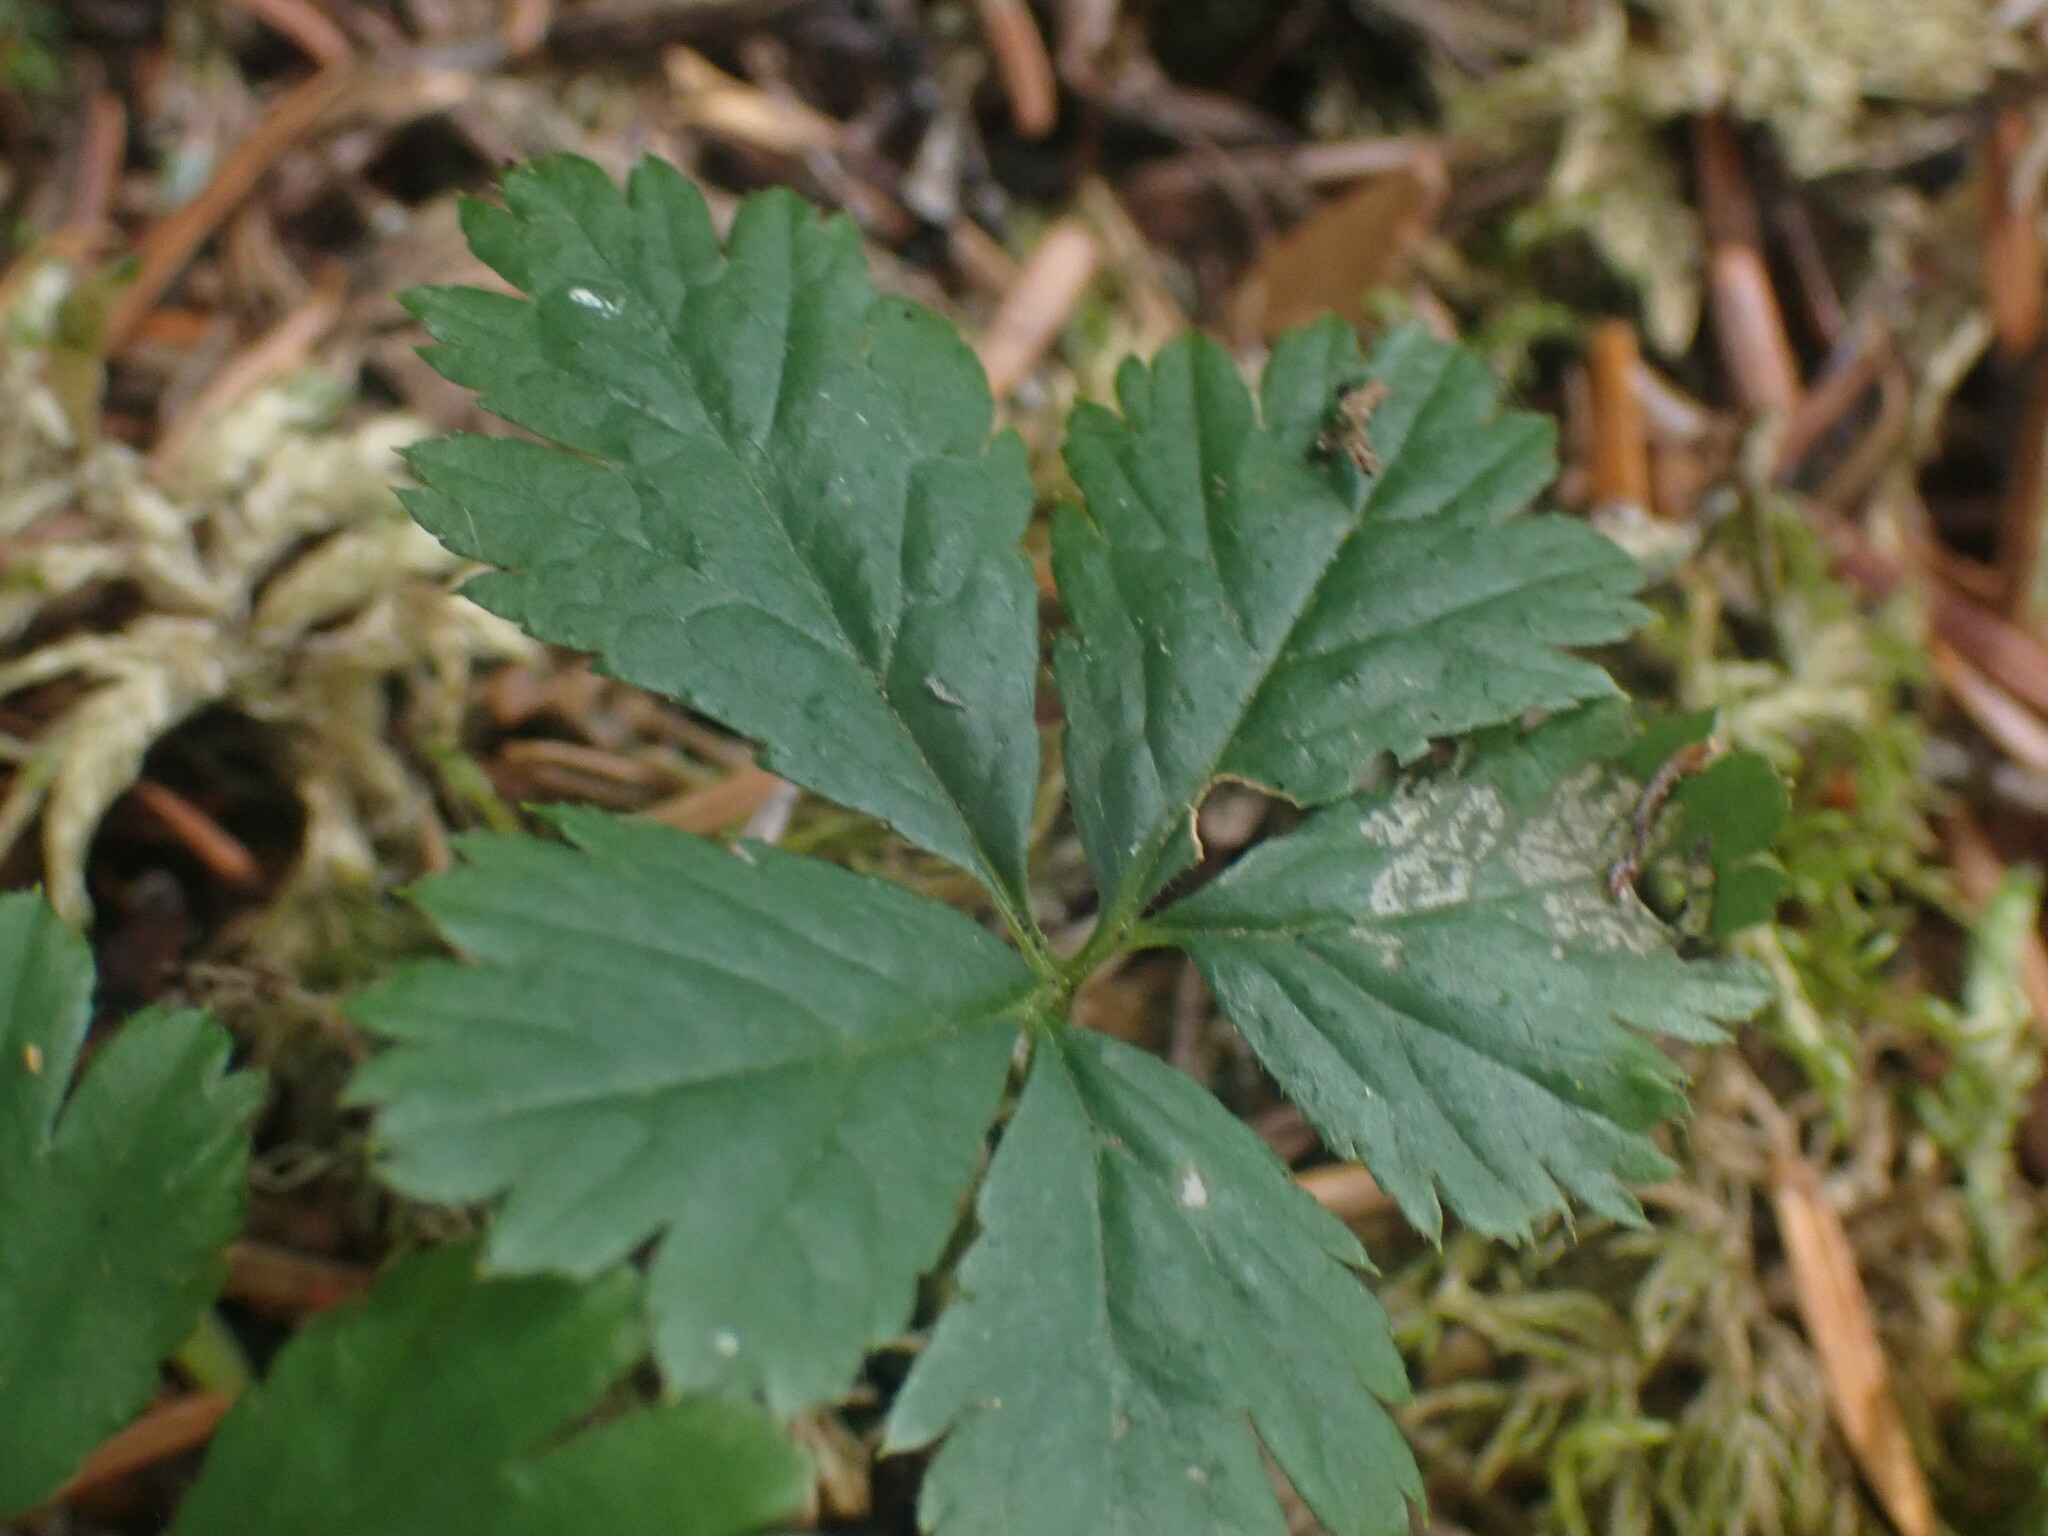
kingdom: Plantae
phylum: Tracheophyta
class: Magnoliopsida
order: Rosales
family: Rosaceae
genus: Rubus
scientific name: Rubus pedatus
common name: Creeping raspberry
